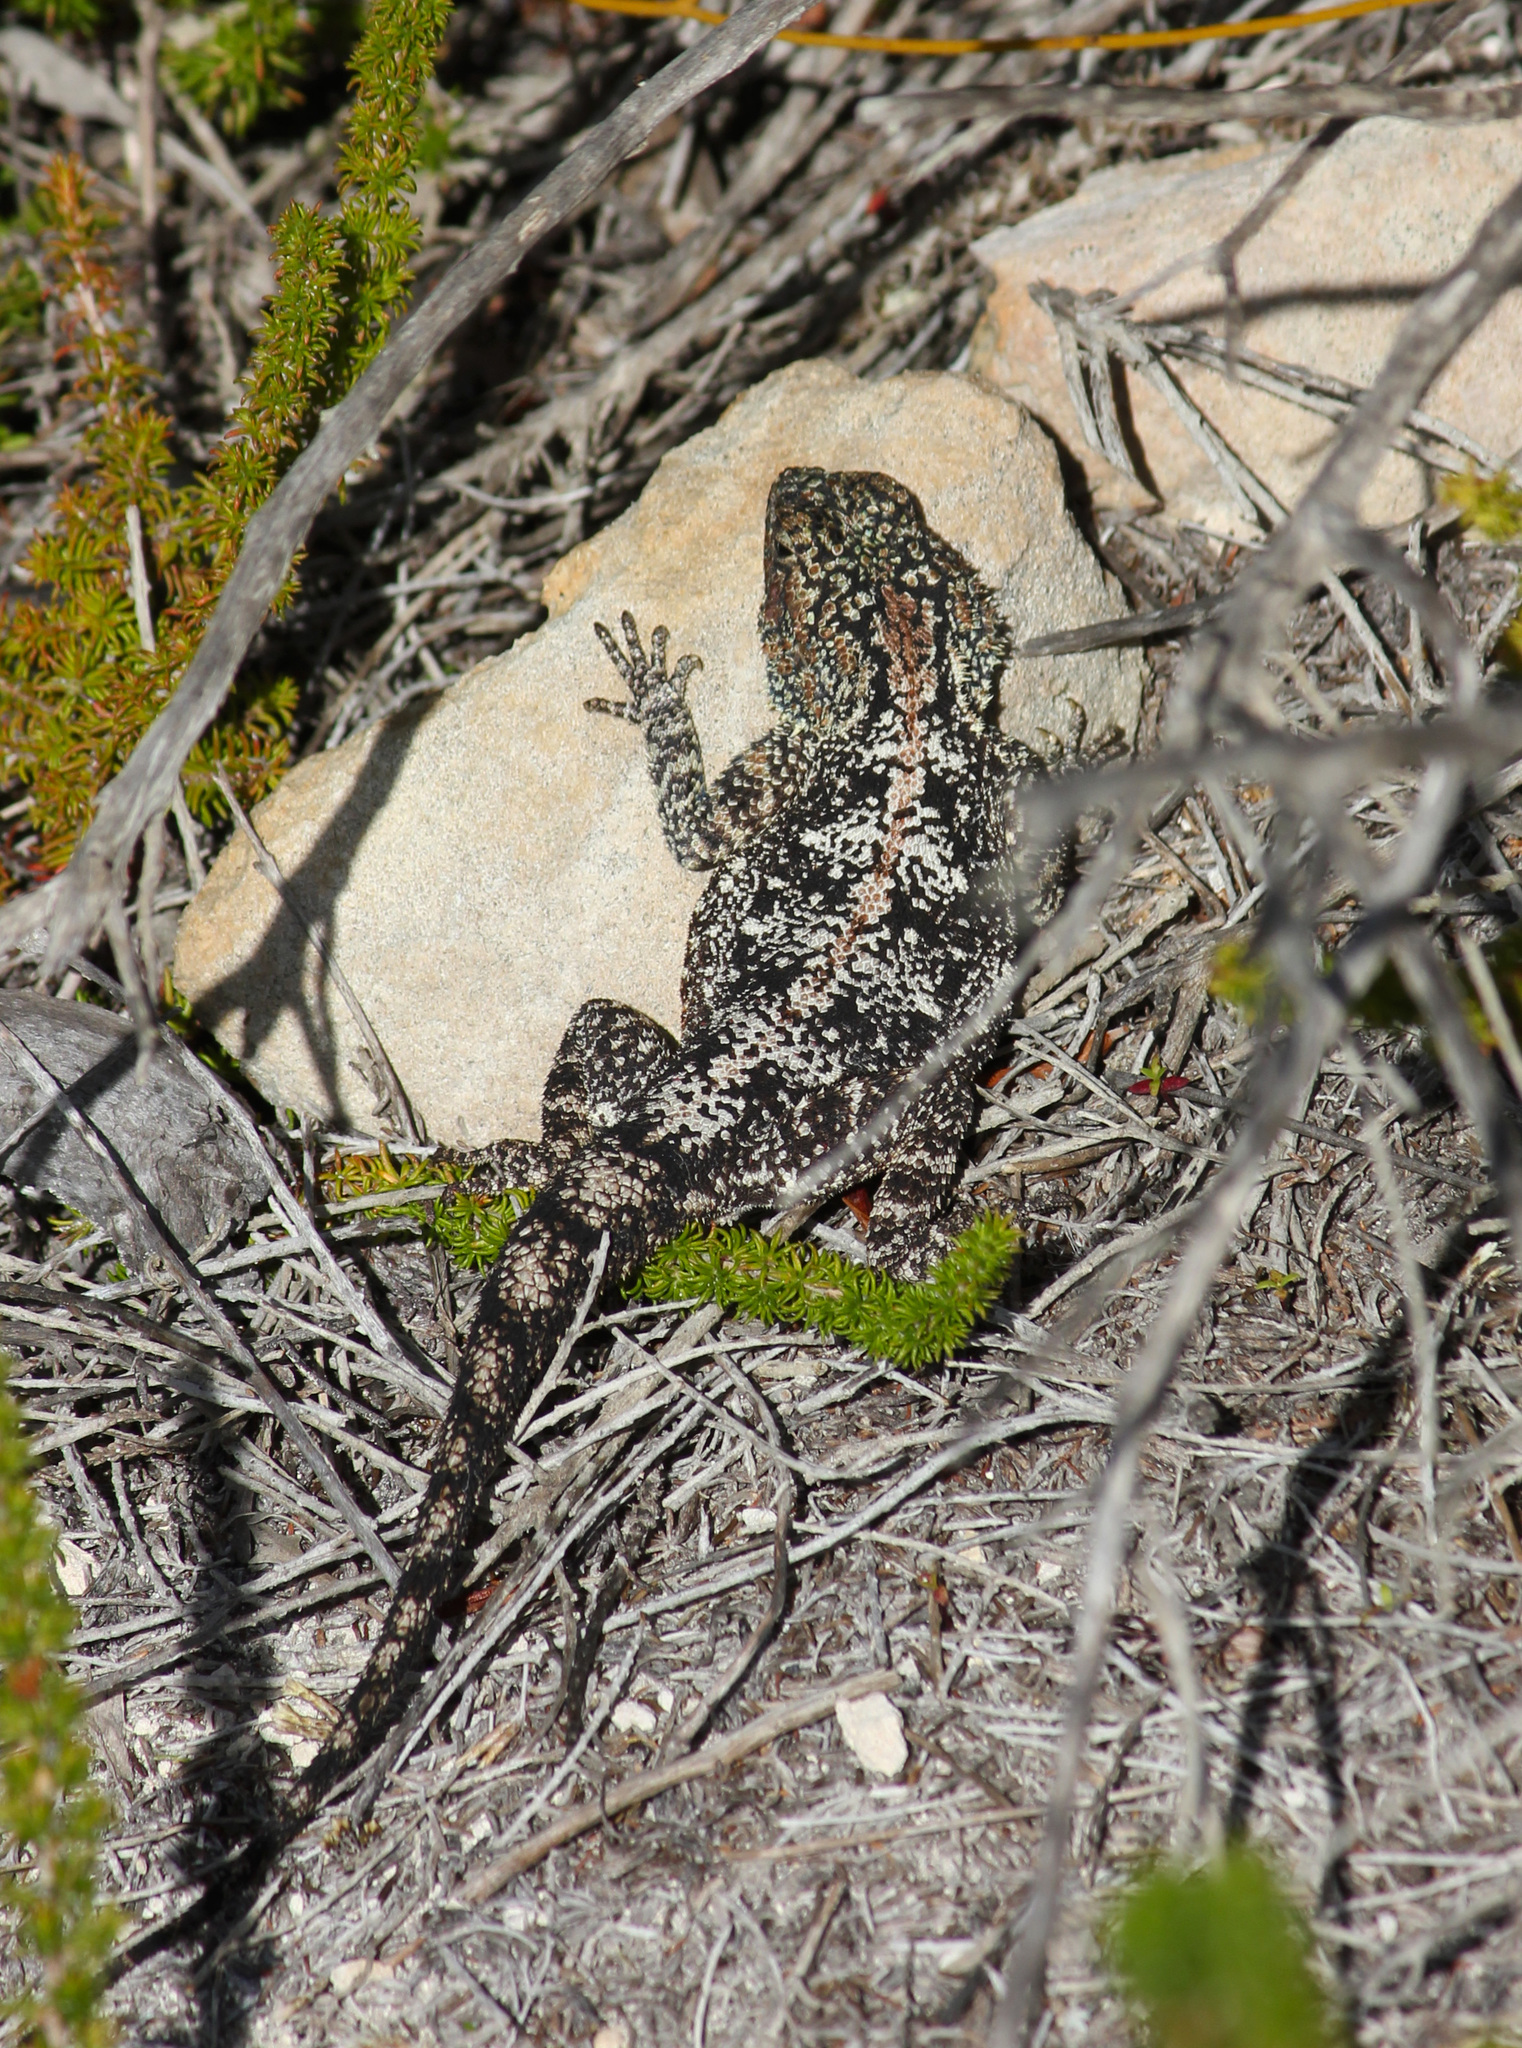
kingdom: Animalia
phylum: Chordata
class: Squamata
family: Agamidae
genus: Agama
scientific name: Agama atra
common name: Southern african rock agama
